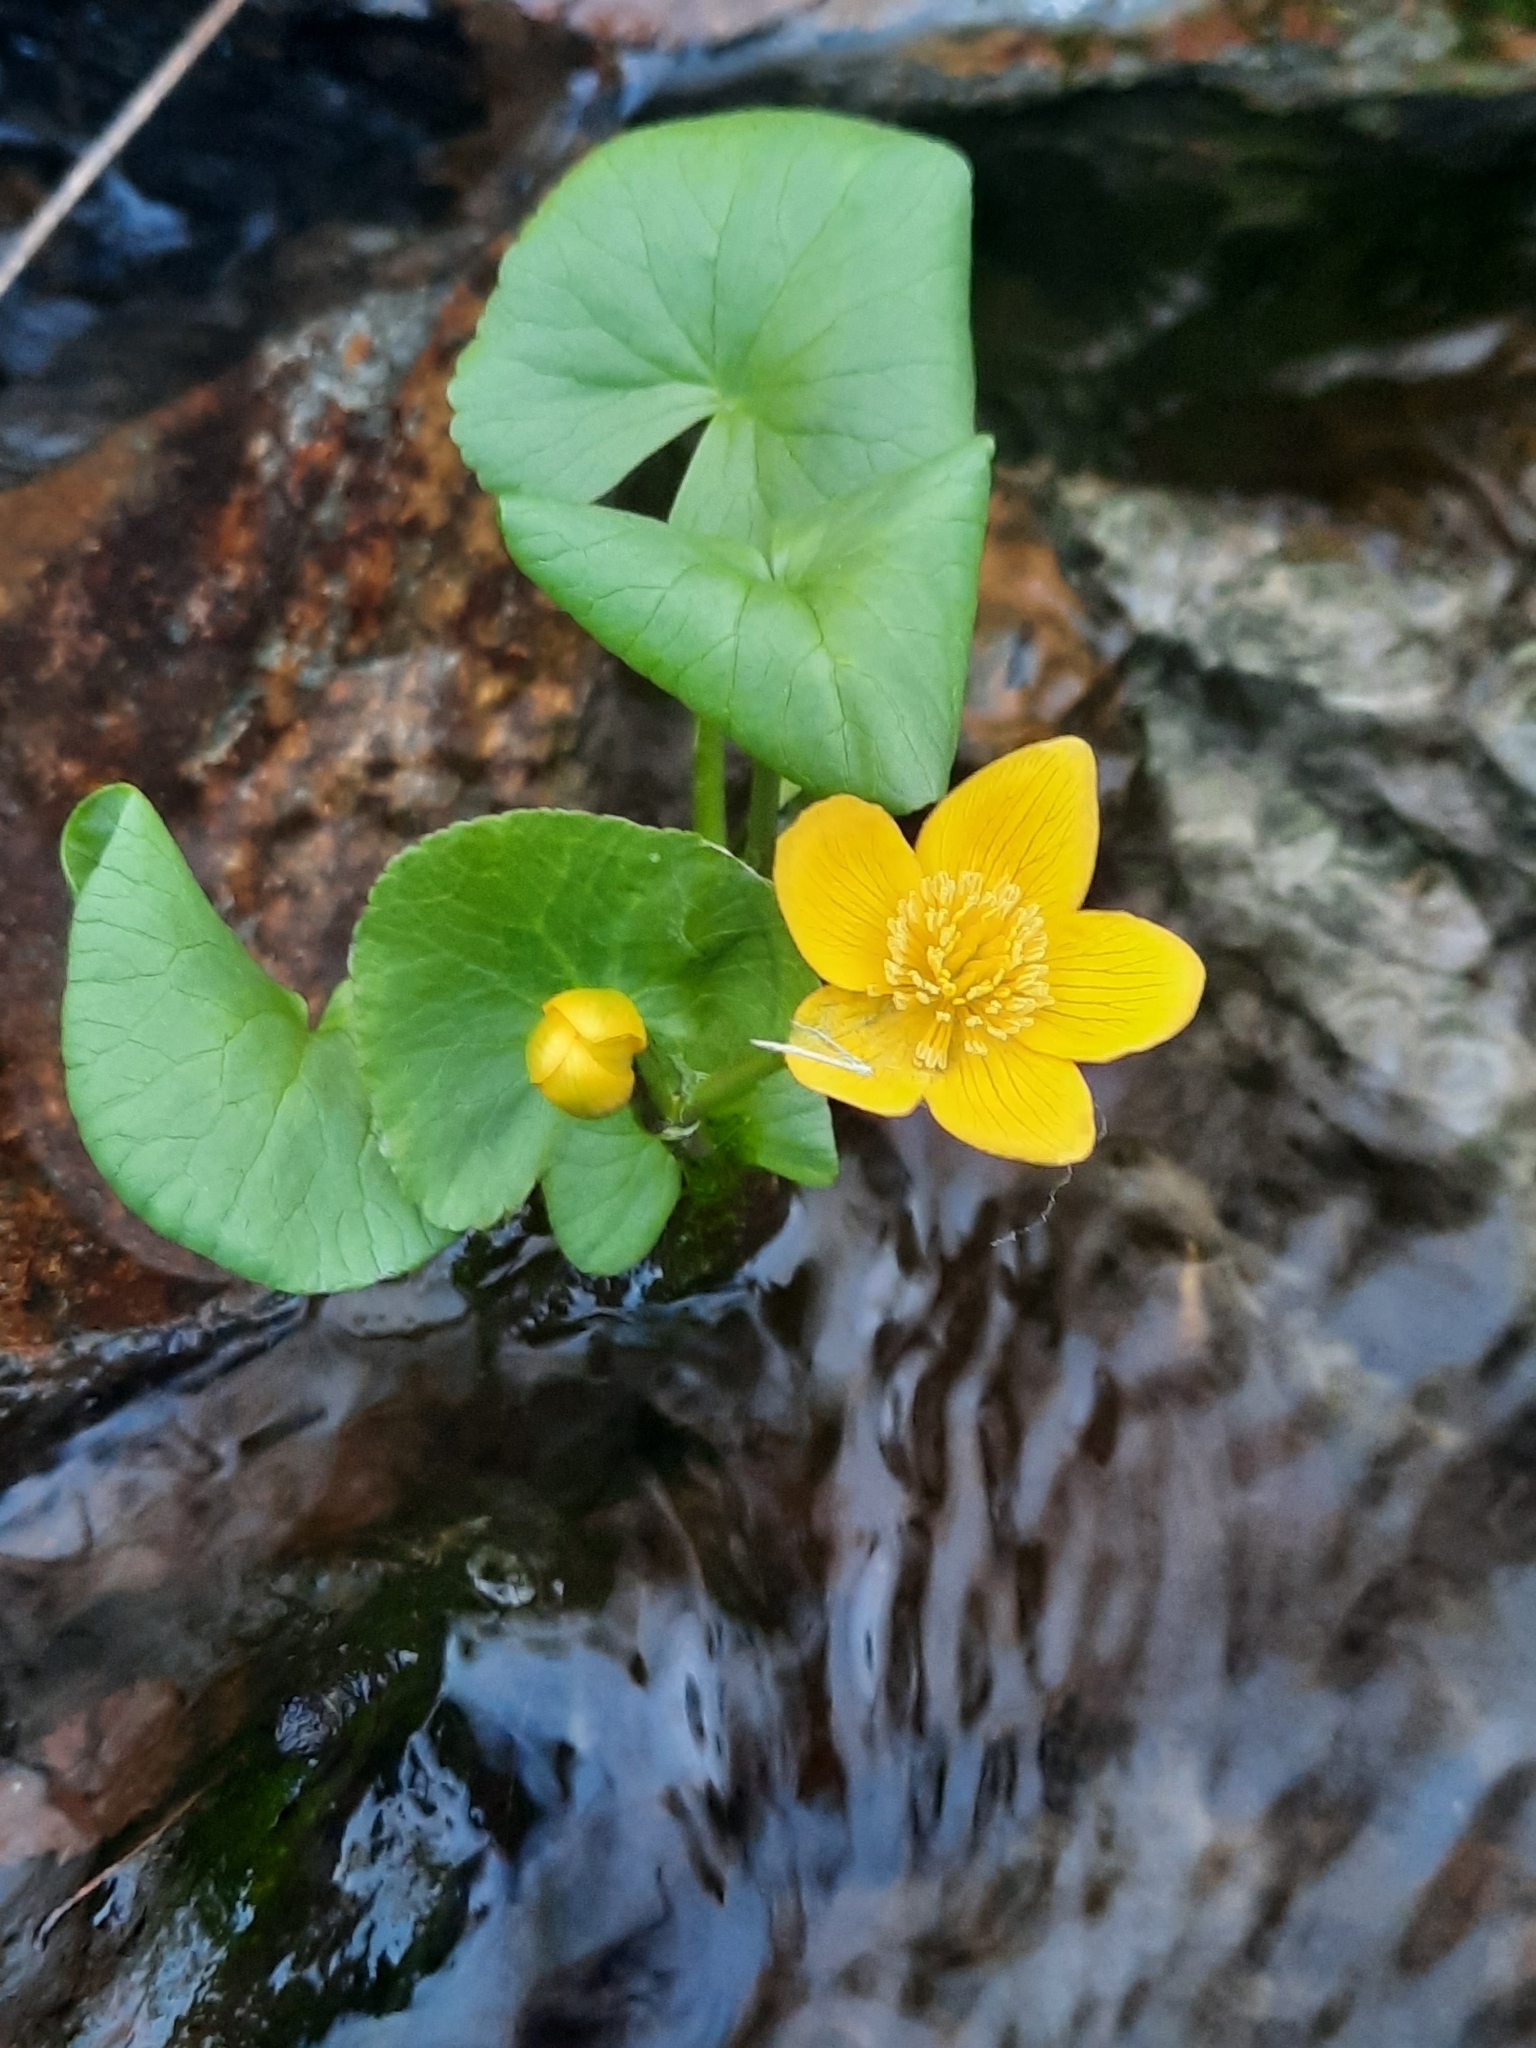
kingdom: Plantae
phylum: Tracheophyta
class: Magnoliopsida
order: Ranunculales
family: Ranunculaceae
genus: Caltha
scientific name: Caltha palustris
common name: Marsh marigold
